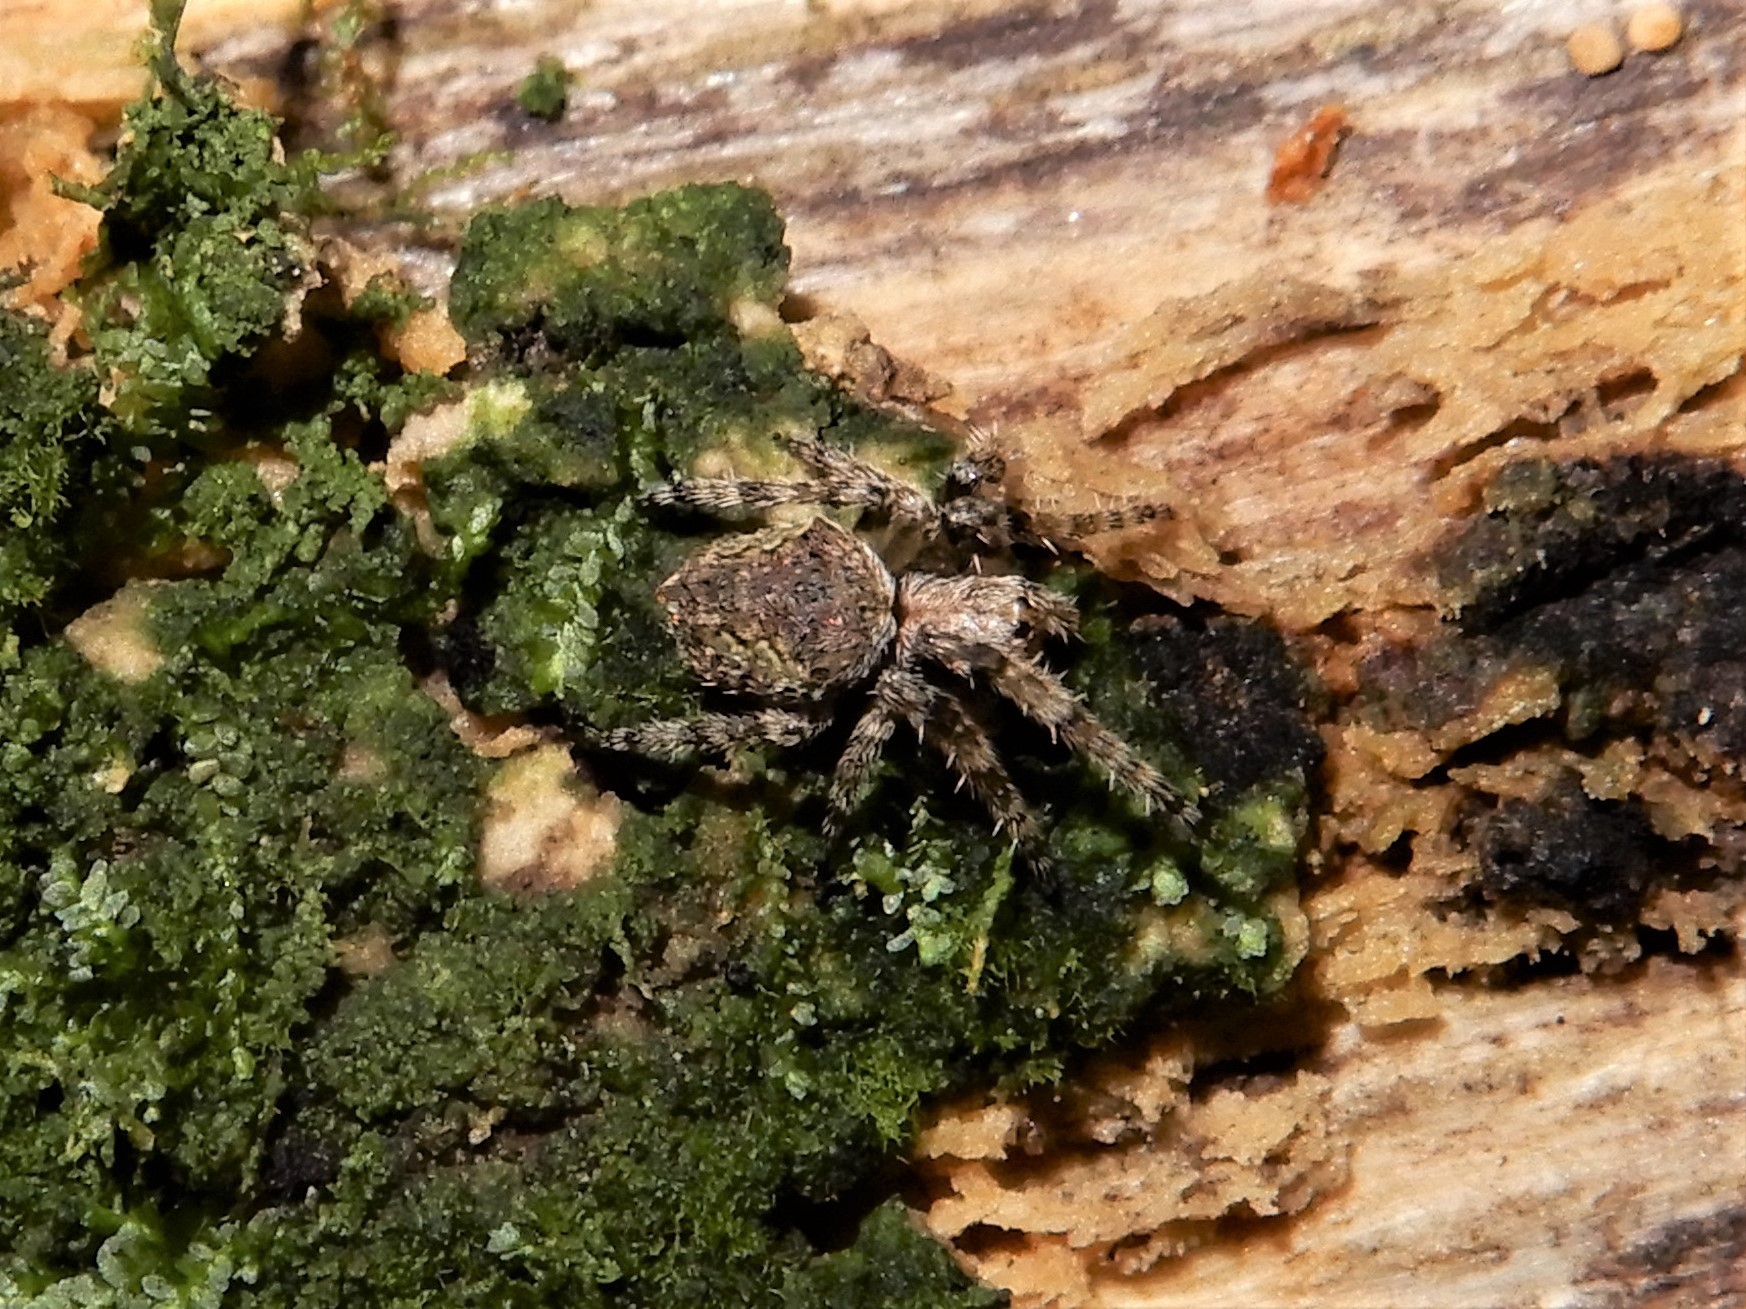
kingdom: Animalia
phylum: Arthropoda
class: Arachnida
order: Araneae
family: Araneidae
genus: Eriophora
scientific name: Eriophora pustulosa
